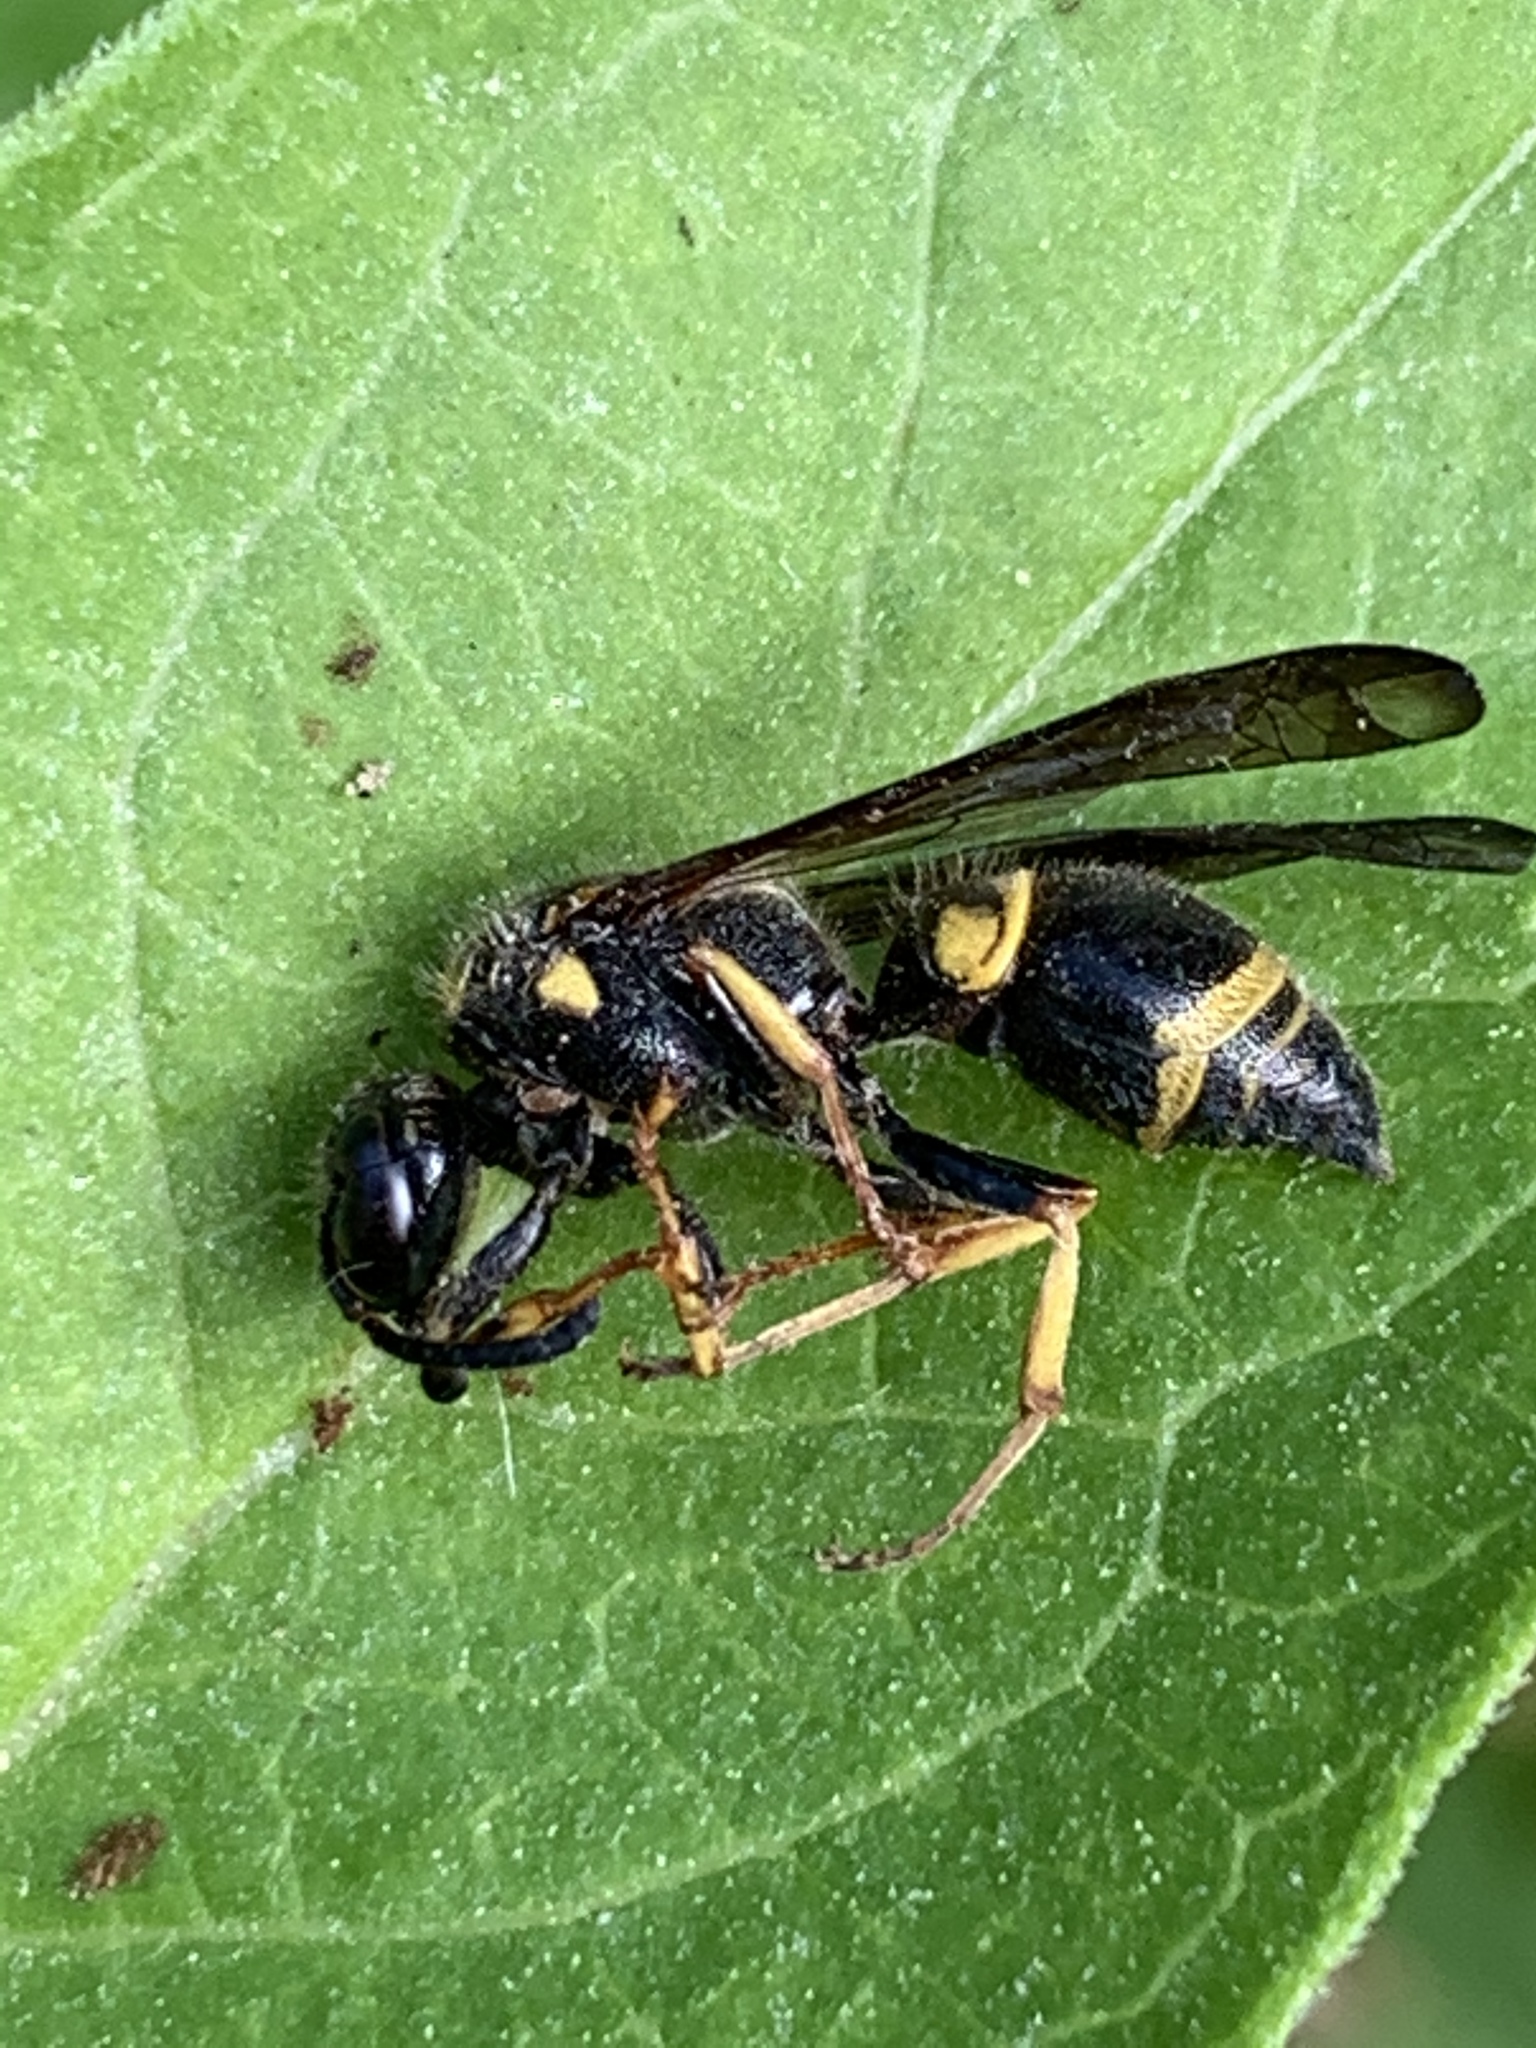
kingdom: Animalia
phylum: Arthropoda
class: Insecta
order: Hymenoptera
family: Vespidae
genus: Ancistrocerus
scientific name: Ancistrocerus campestris
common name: Smiling mason wasp
